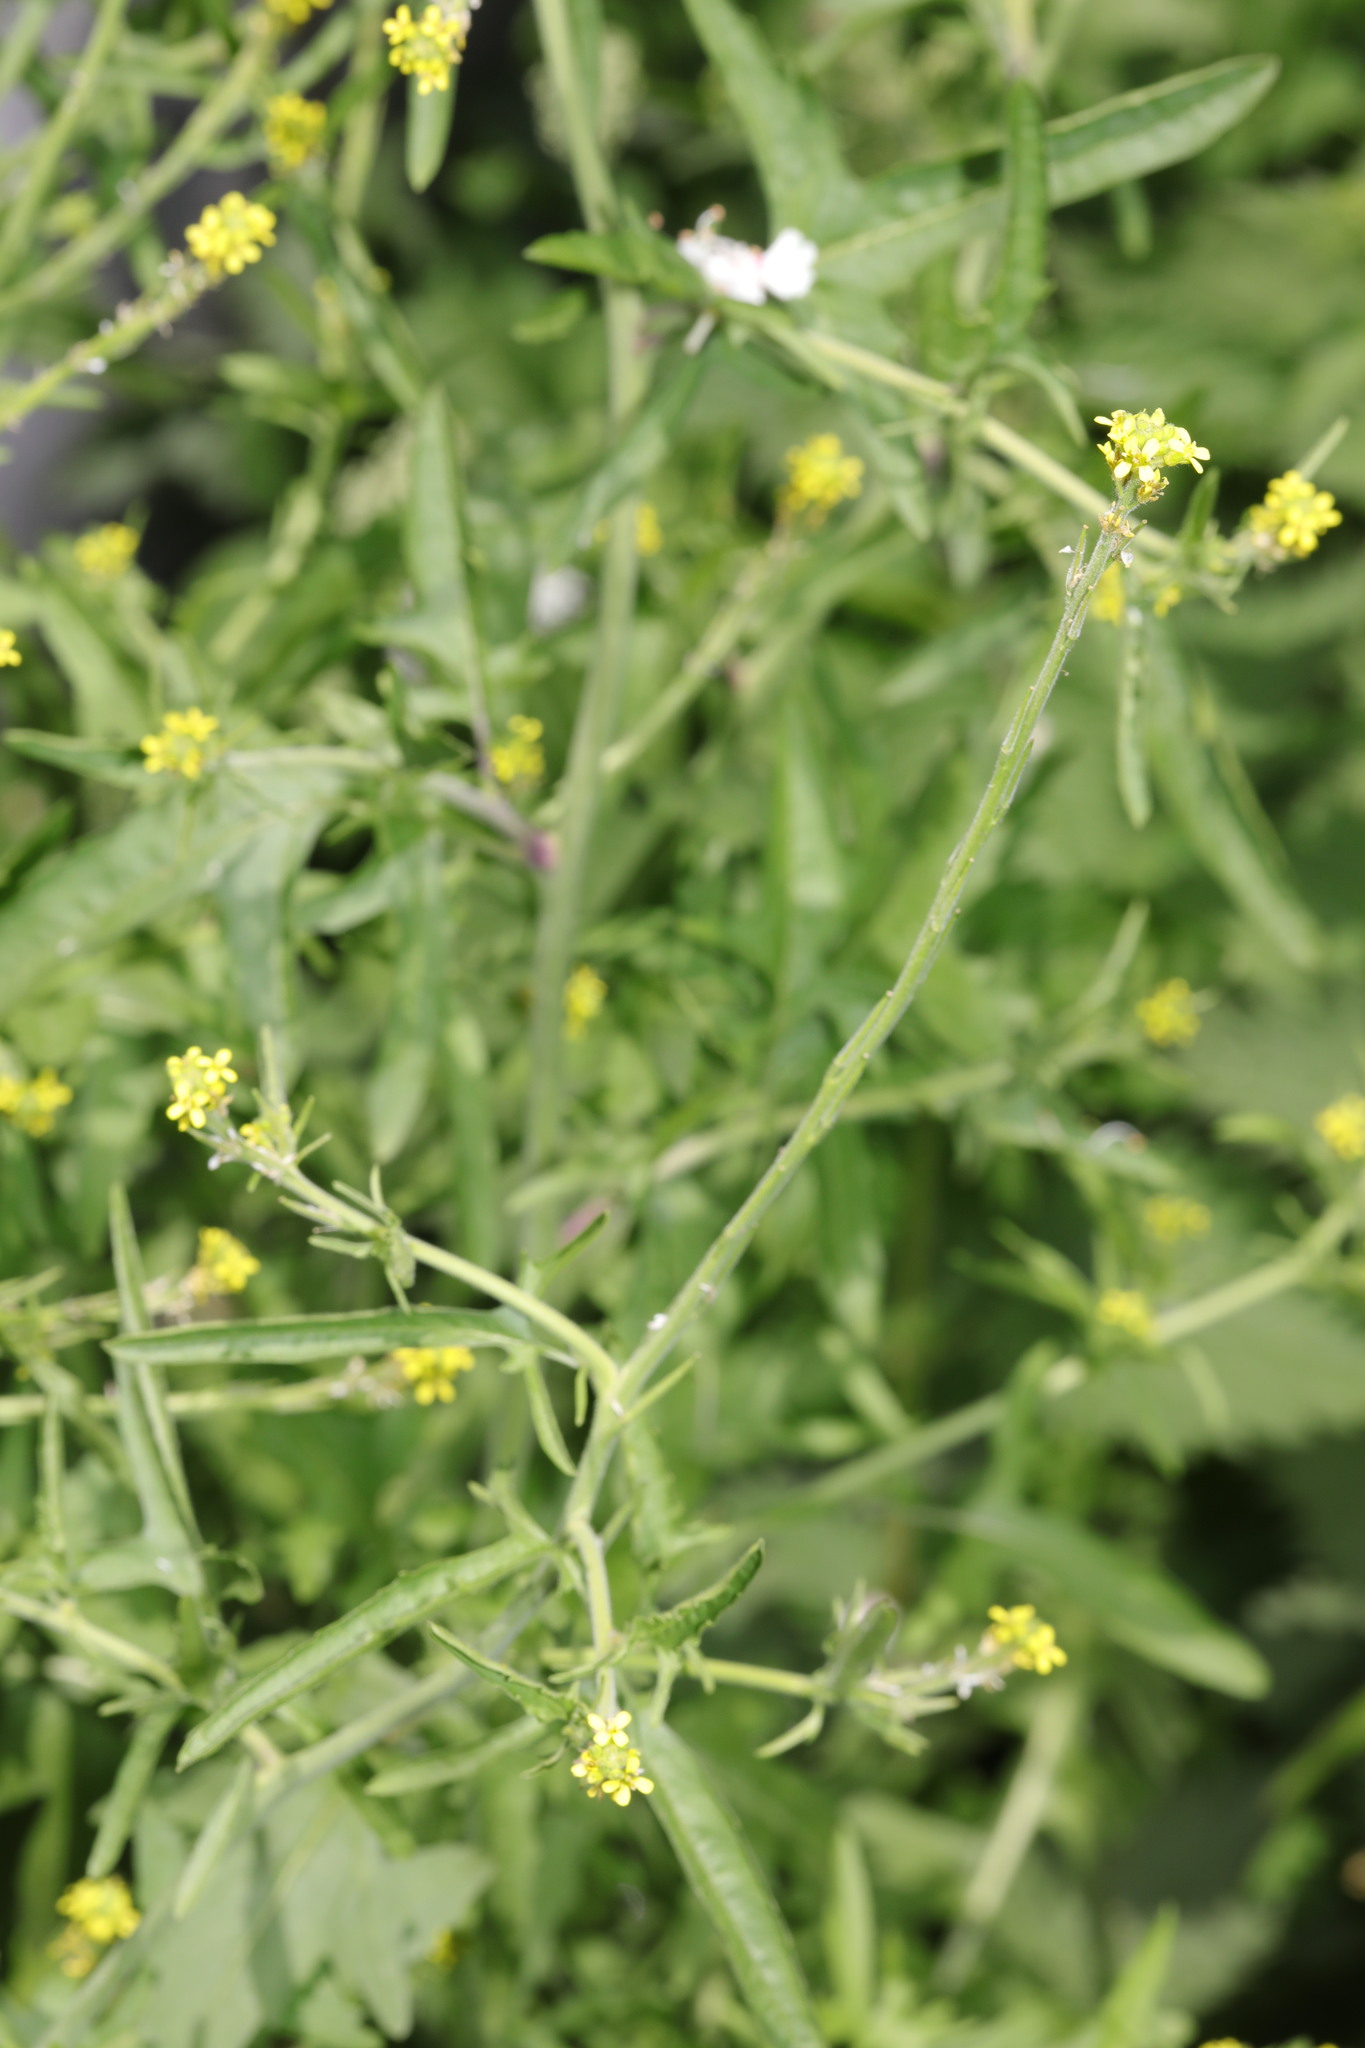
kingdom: Plantae
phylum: Tracheophyta
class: Magnoliopsida
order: Brassicales
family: Brassicaceae
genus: Sisymbrium
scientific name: Sisymbrium officinale
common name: Hedge mustard
